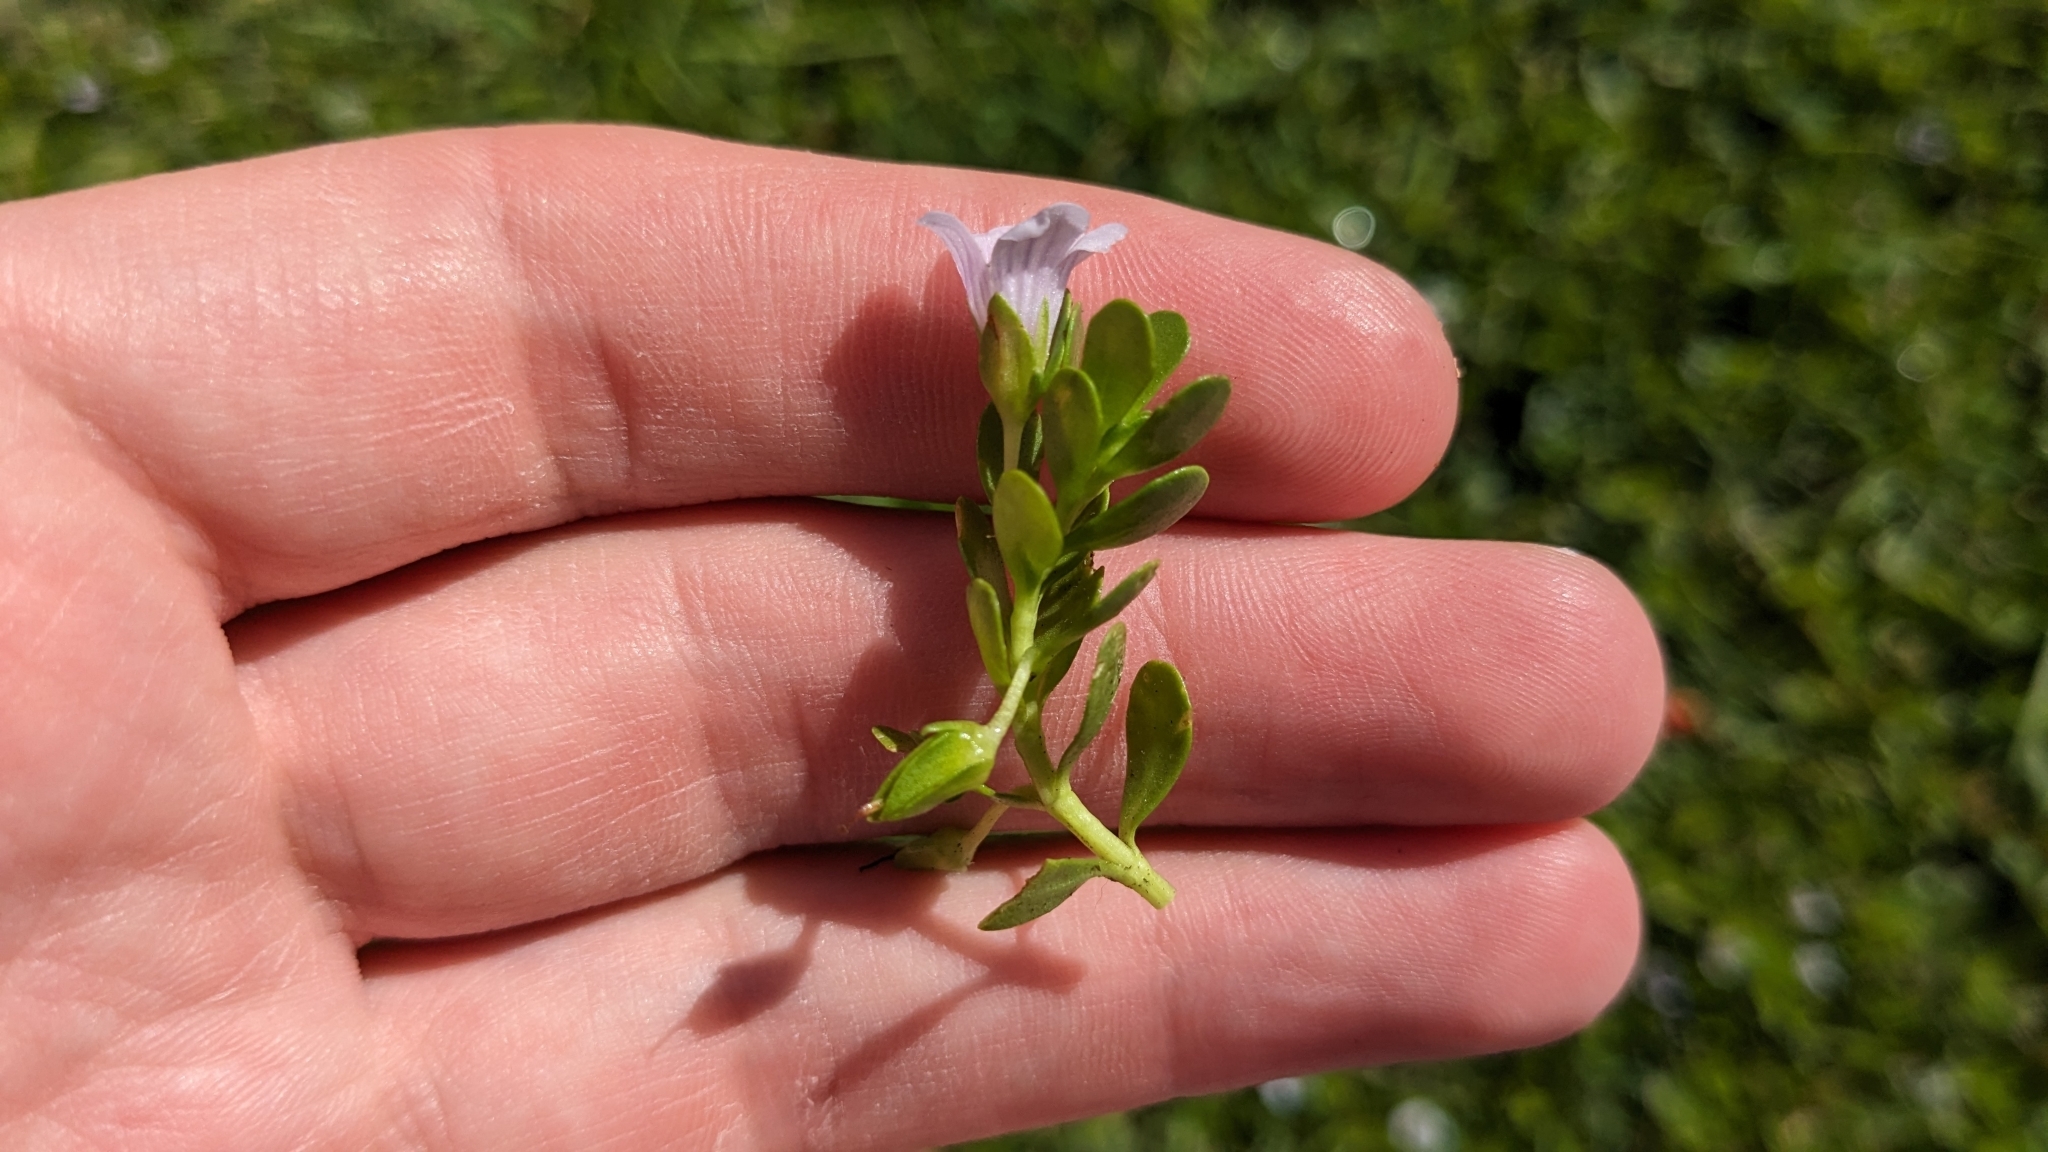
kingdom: Plantae
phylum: Tracheophyta
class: Magnoliopsida
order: Lamiales
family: Plantaginaceae
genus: Bacopa
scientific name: Bacopa monnieri
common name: Indian-pennywort
